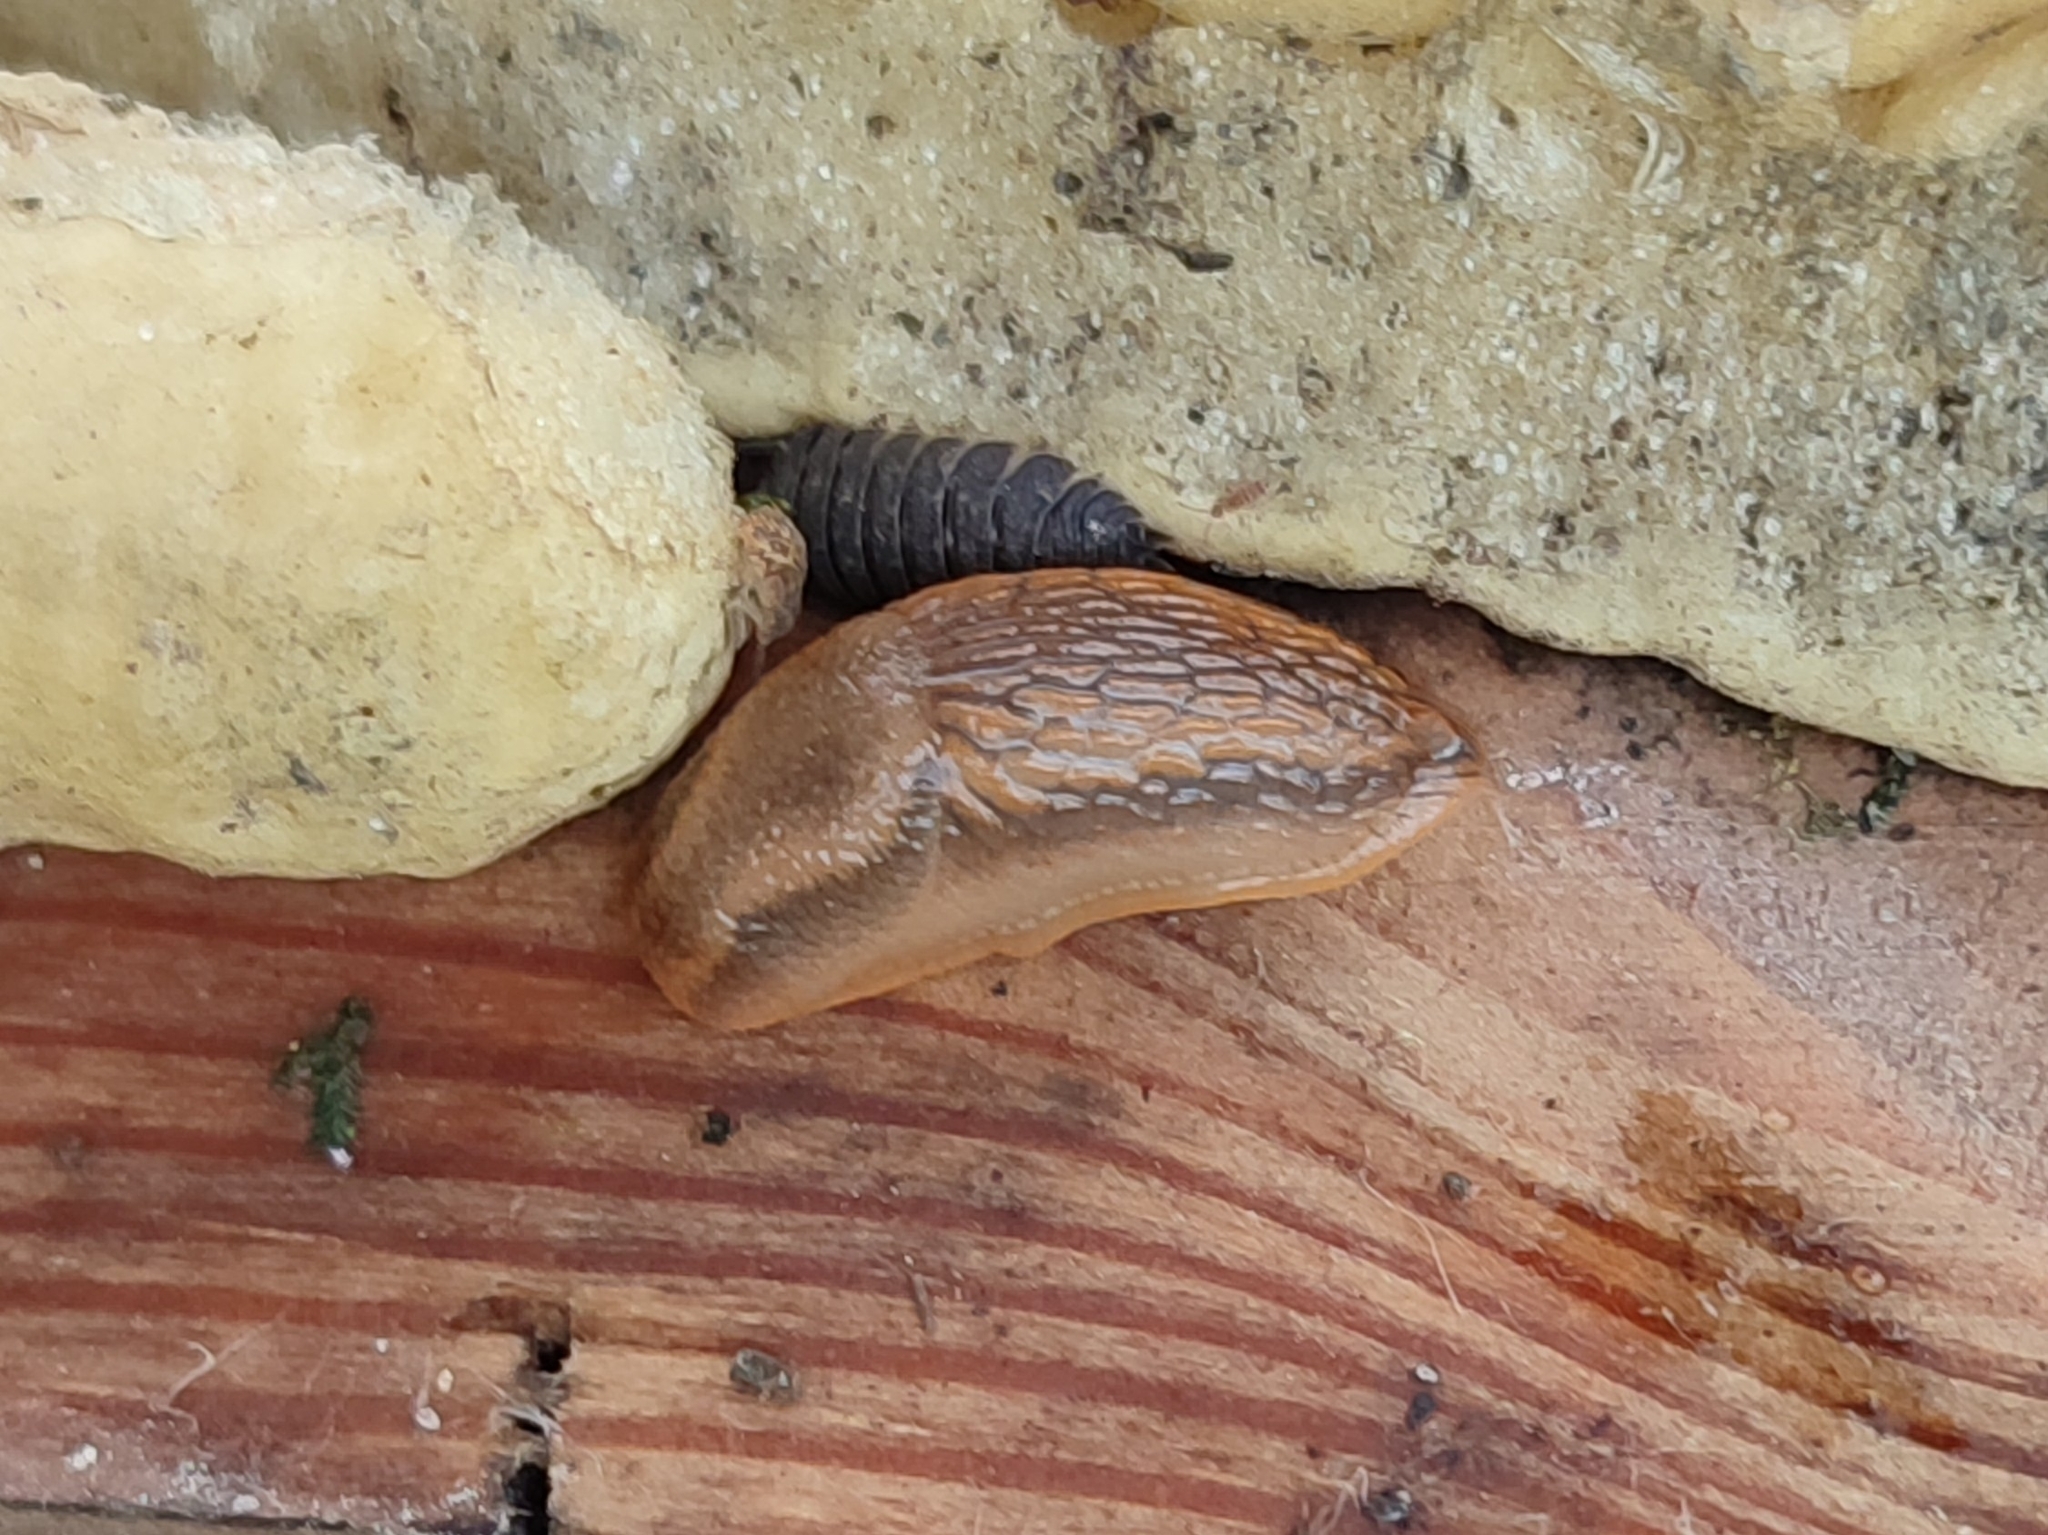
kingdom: Animalia
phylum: Mollusca
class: Gastropoda
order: Stylommatophora
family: Arionidae
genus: Arion
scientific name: Arion vulgaris
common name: Lusitanian slug
